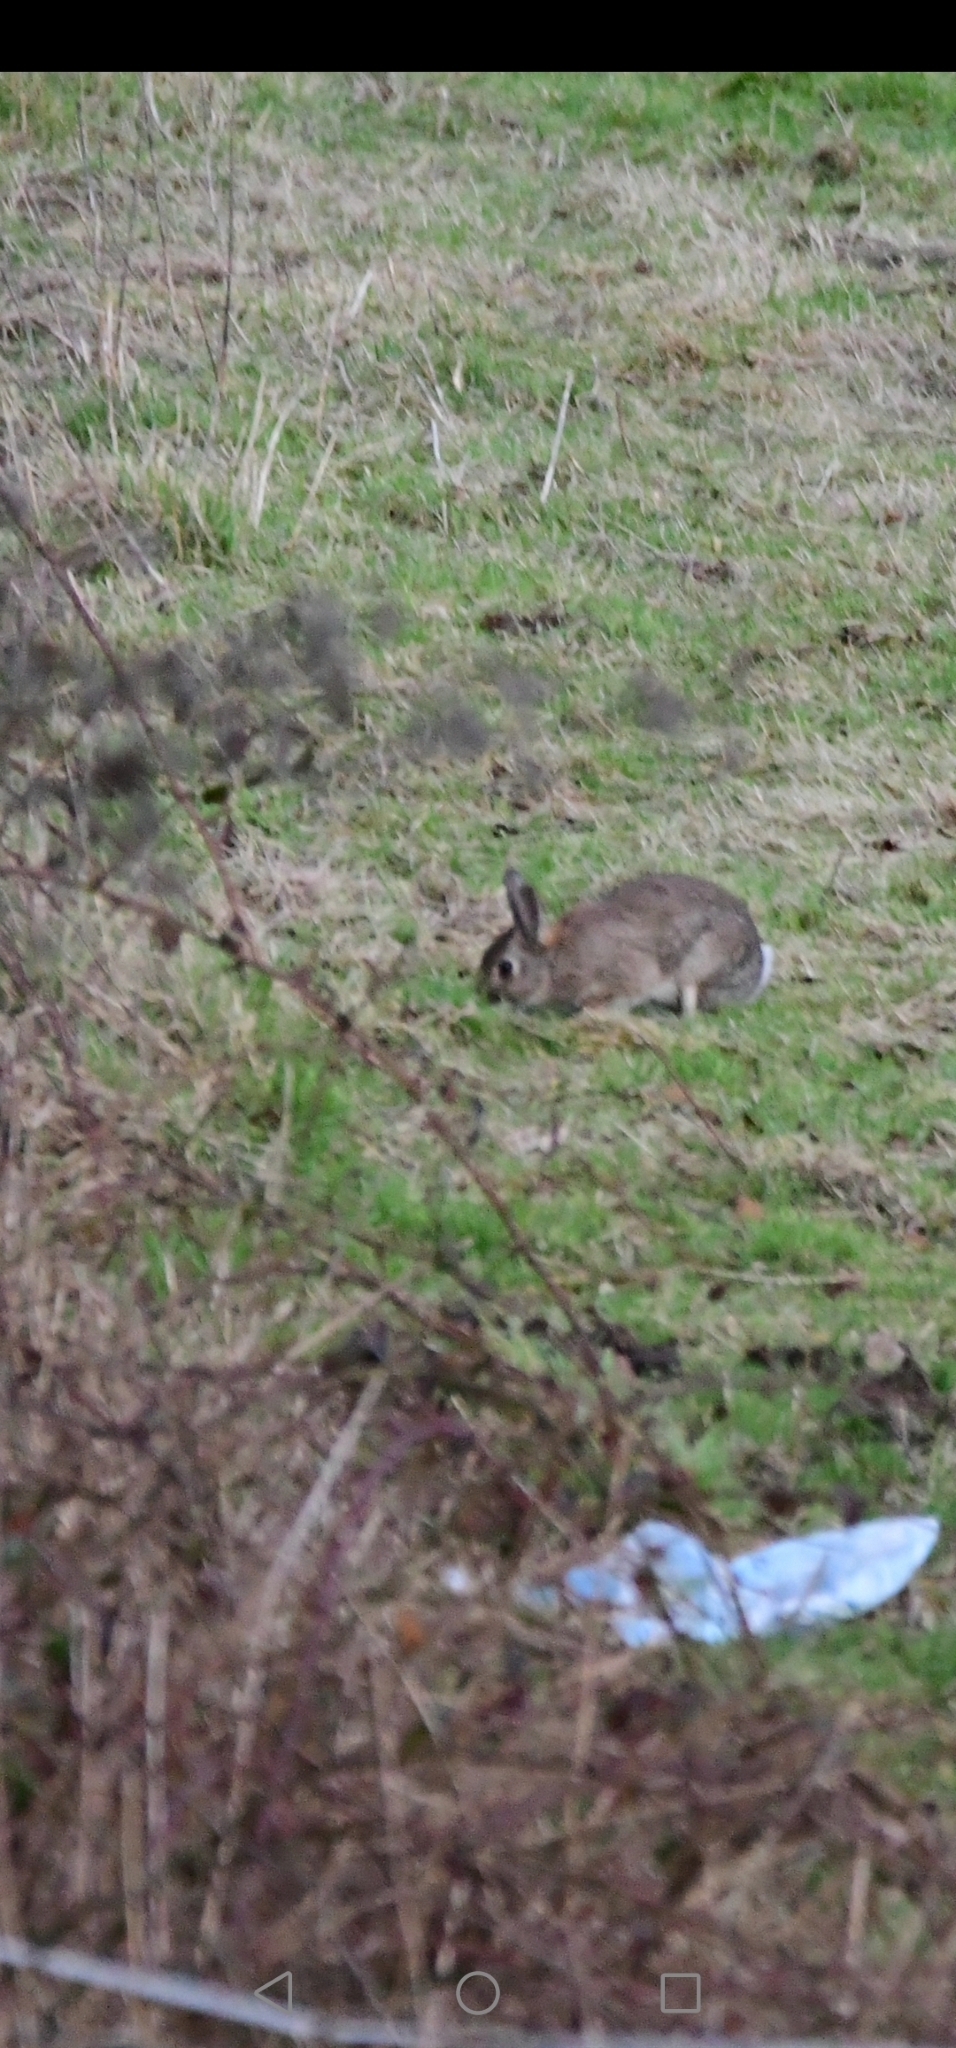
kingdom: Animalia
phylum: Chordata
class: Mammalia
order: Lagomorpha
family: Leporidae
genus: Oryctolagus
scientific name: Oryctolagus cuniculus
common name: European rabbit
